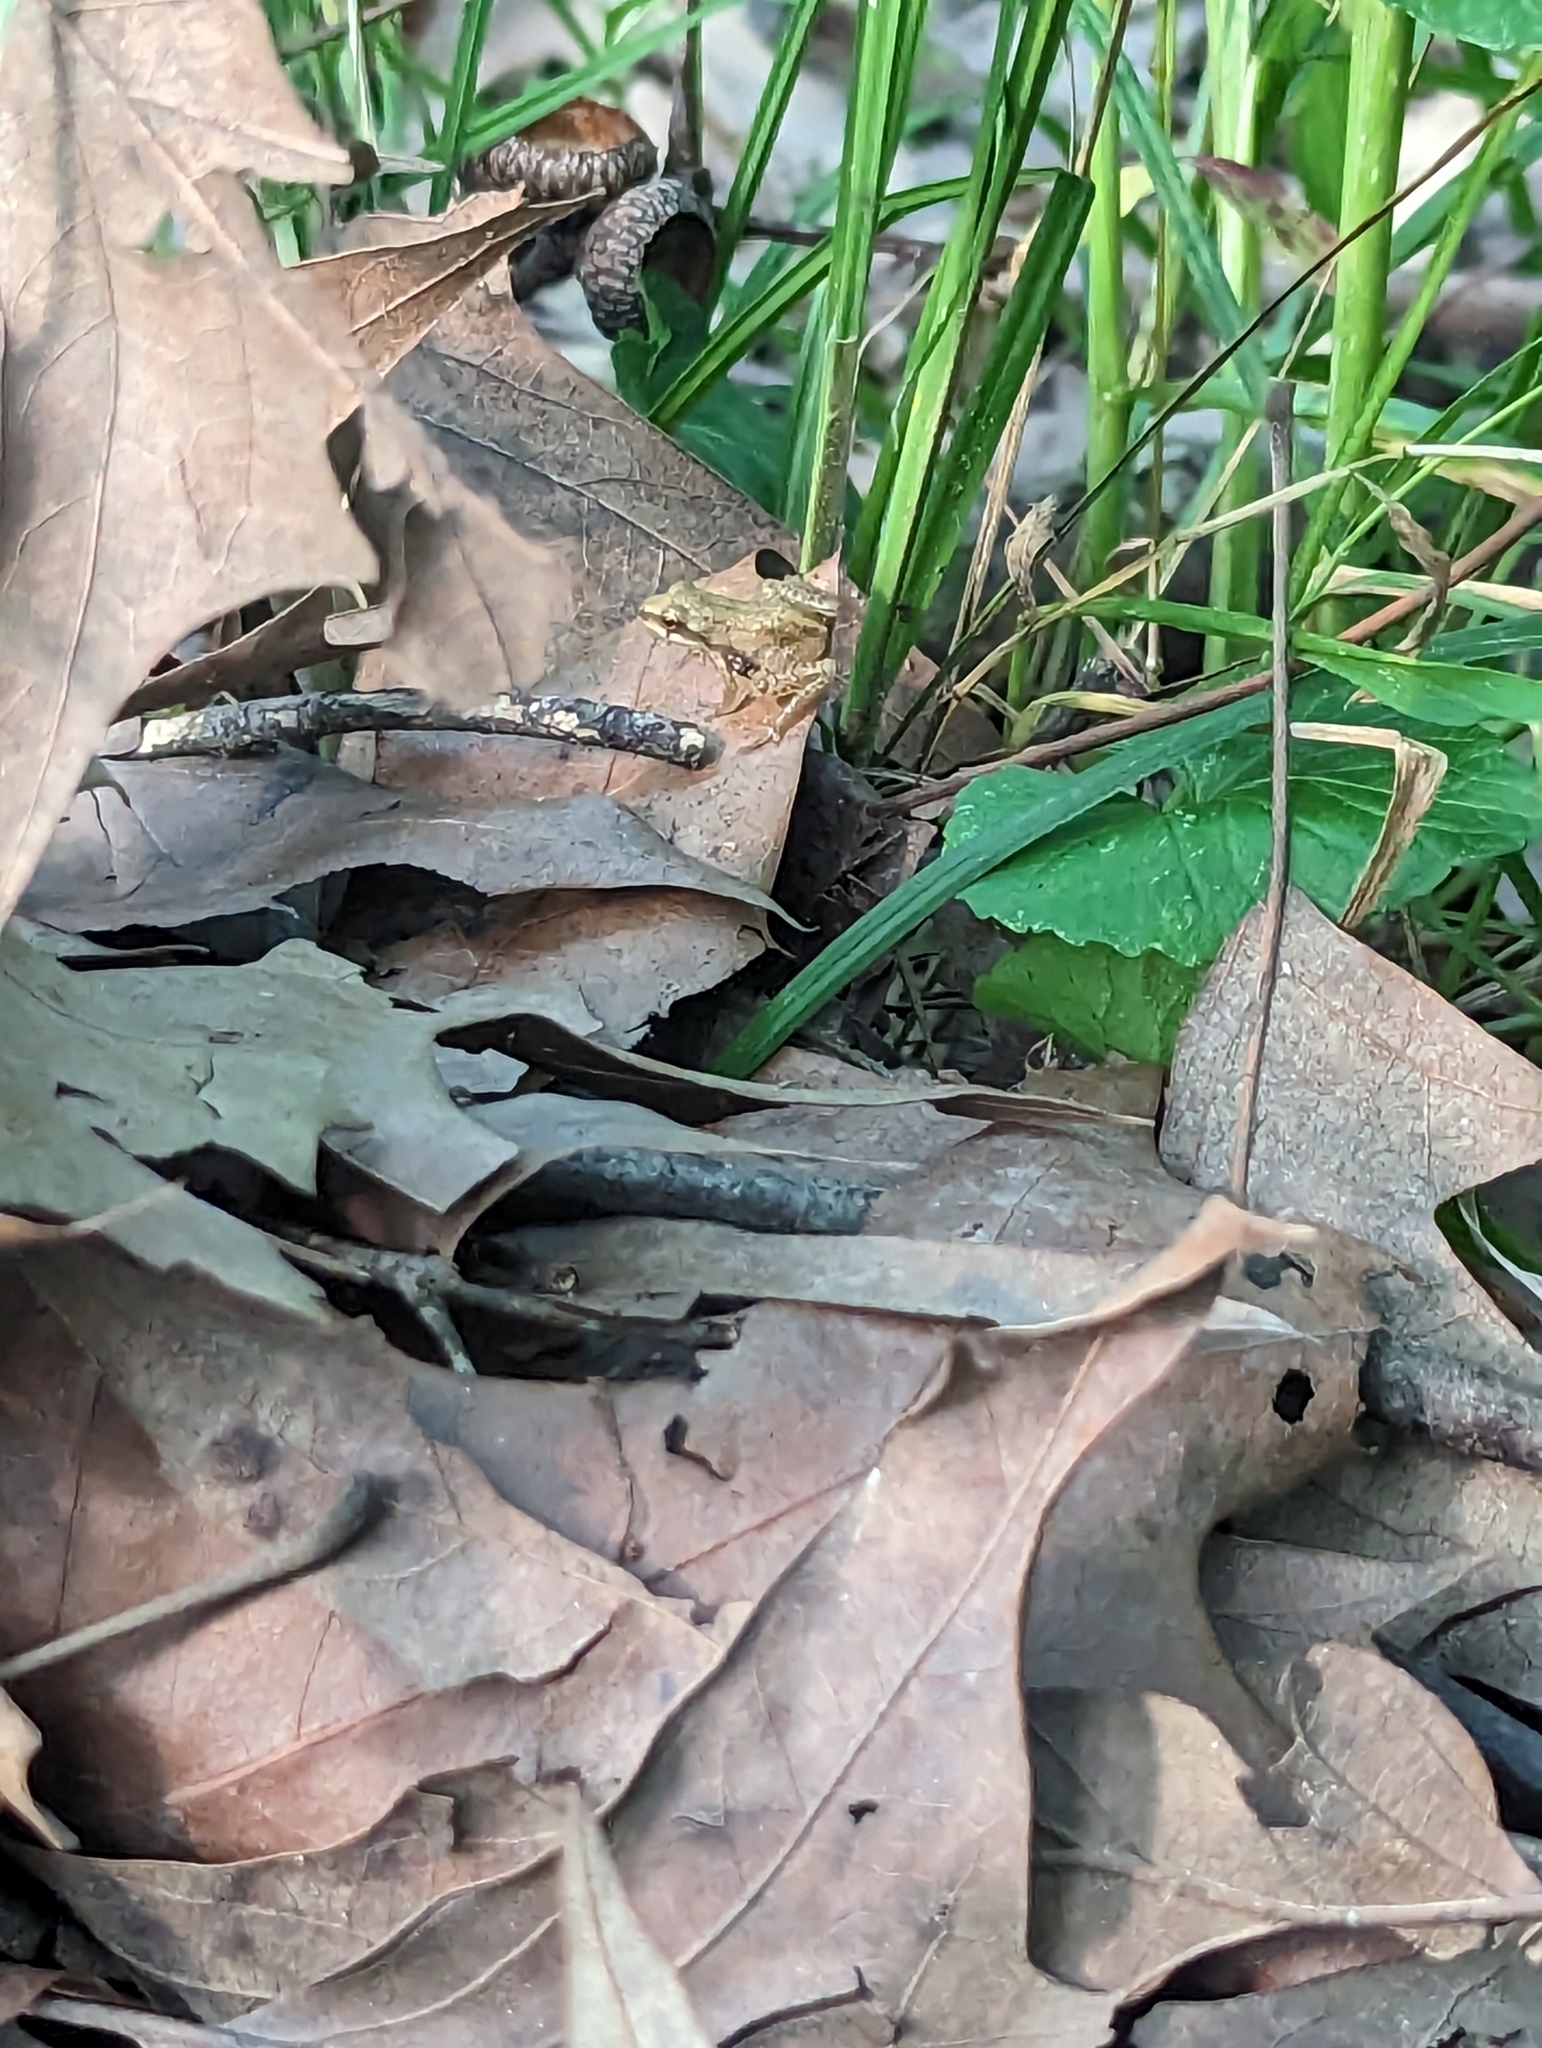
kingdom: Animalia
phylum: Chordata
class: Amphibia
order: Anura
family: Hylidae
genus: Pseudacris
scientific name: Pseudacris feriarum
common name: Upland chorus frog
